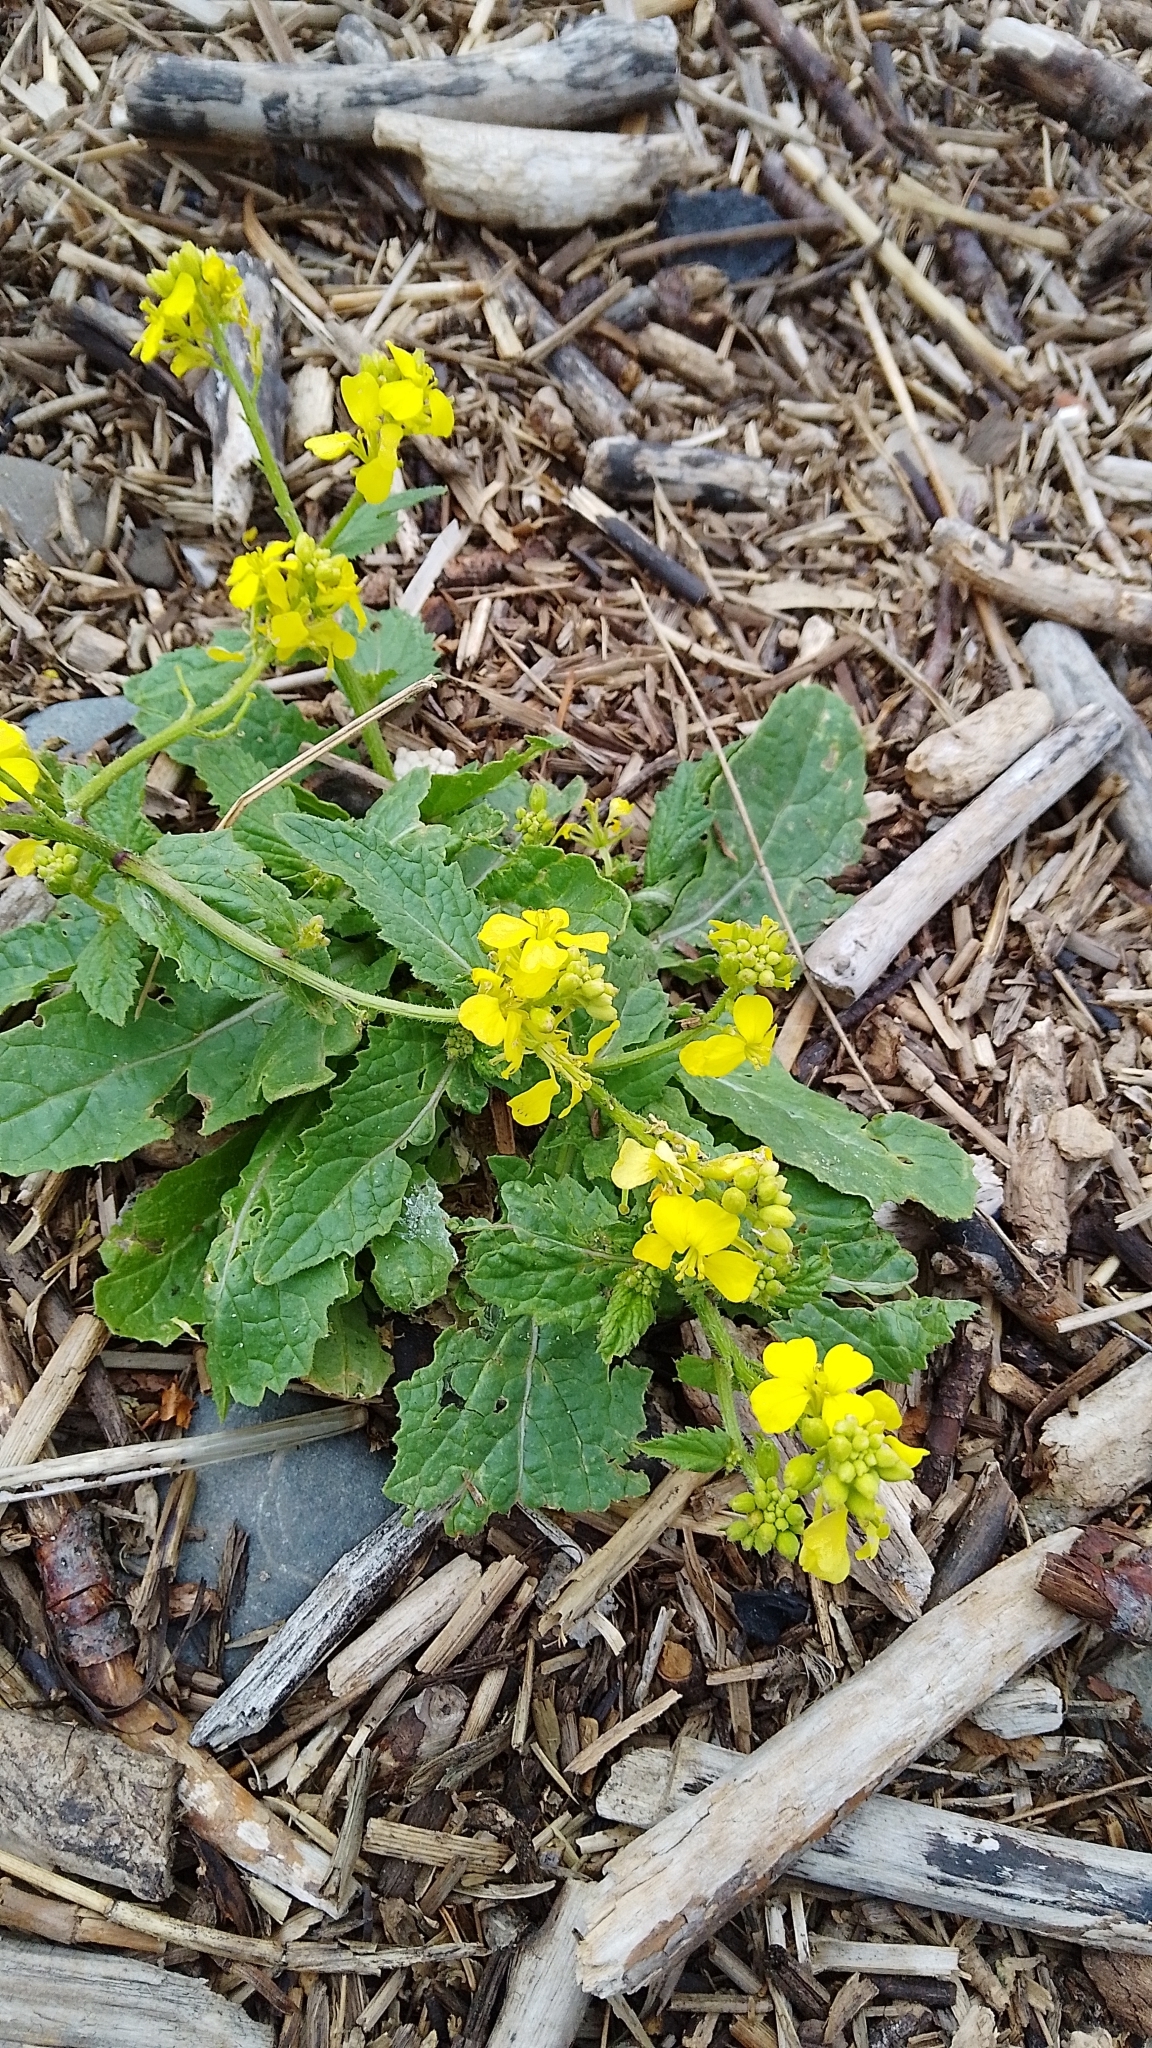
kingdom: Plantae
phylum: Tracheophyta
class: Magnoliopsida
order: Brassicales
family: Brassicaceae
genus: Sinapis
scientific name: Sinapis arvensis
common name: Charlock
